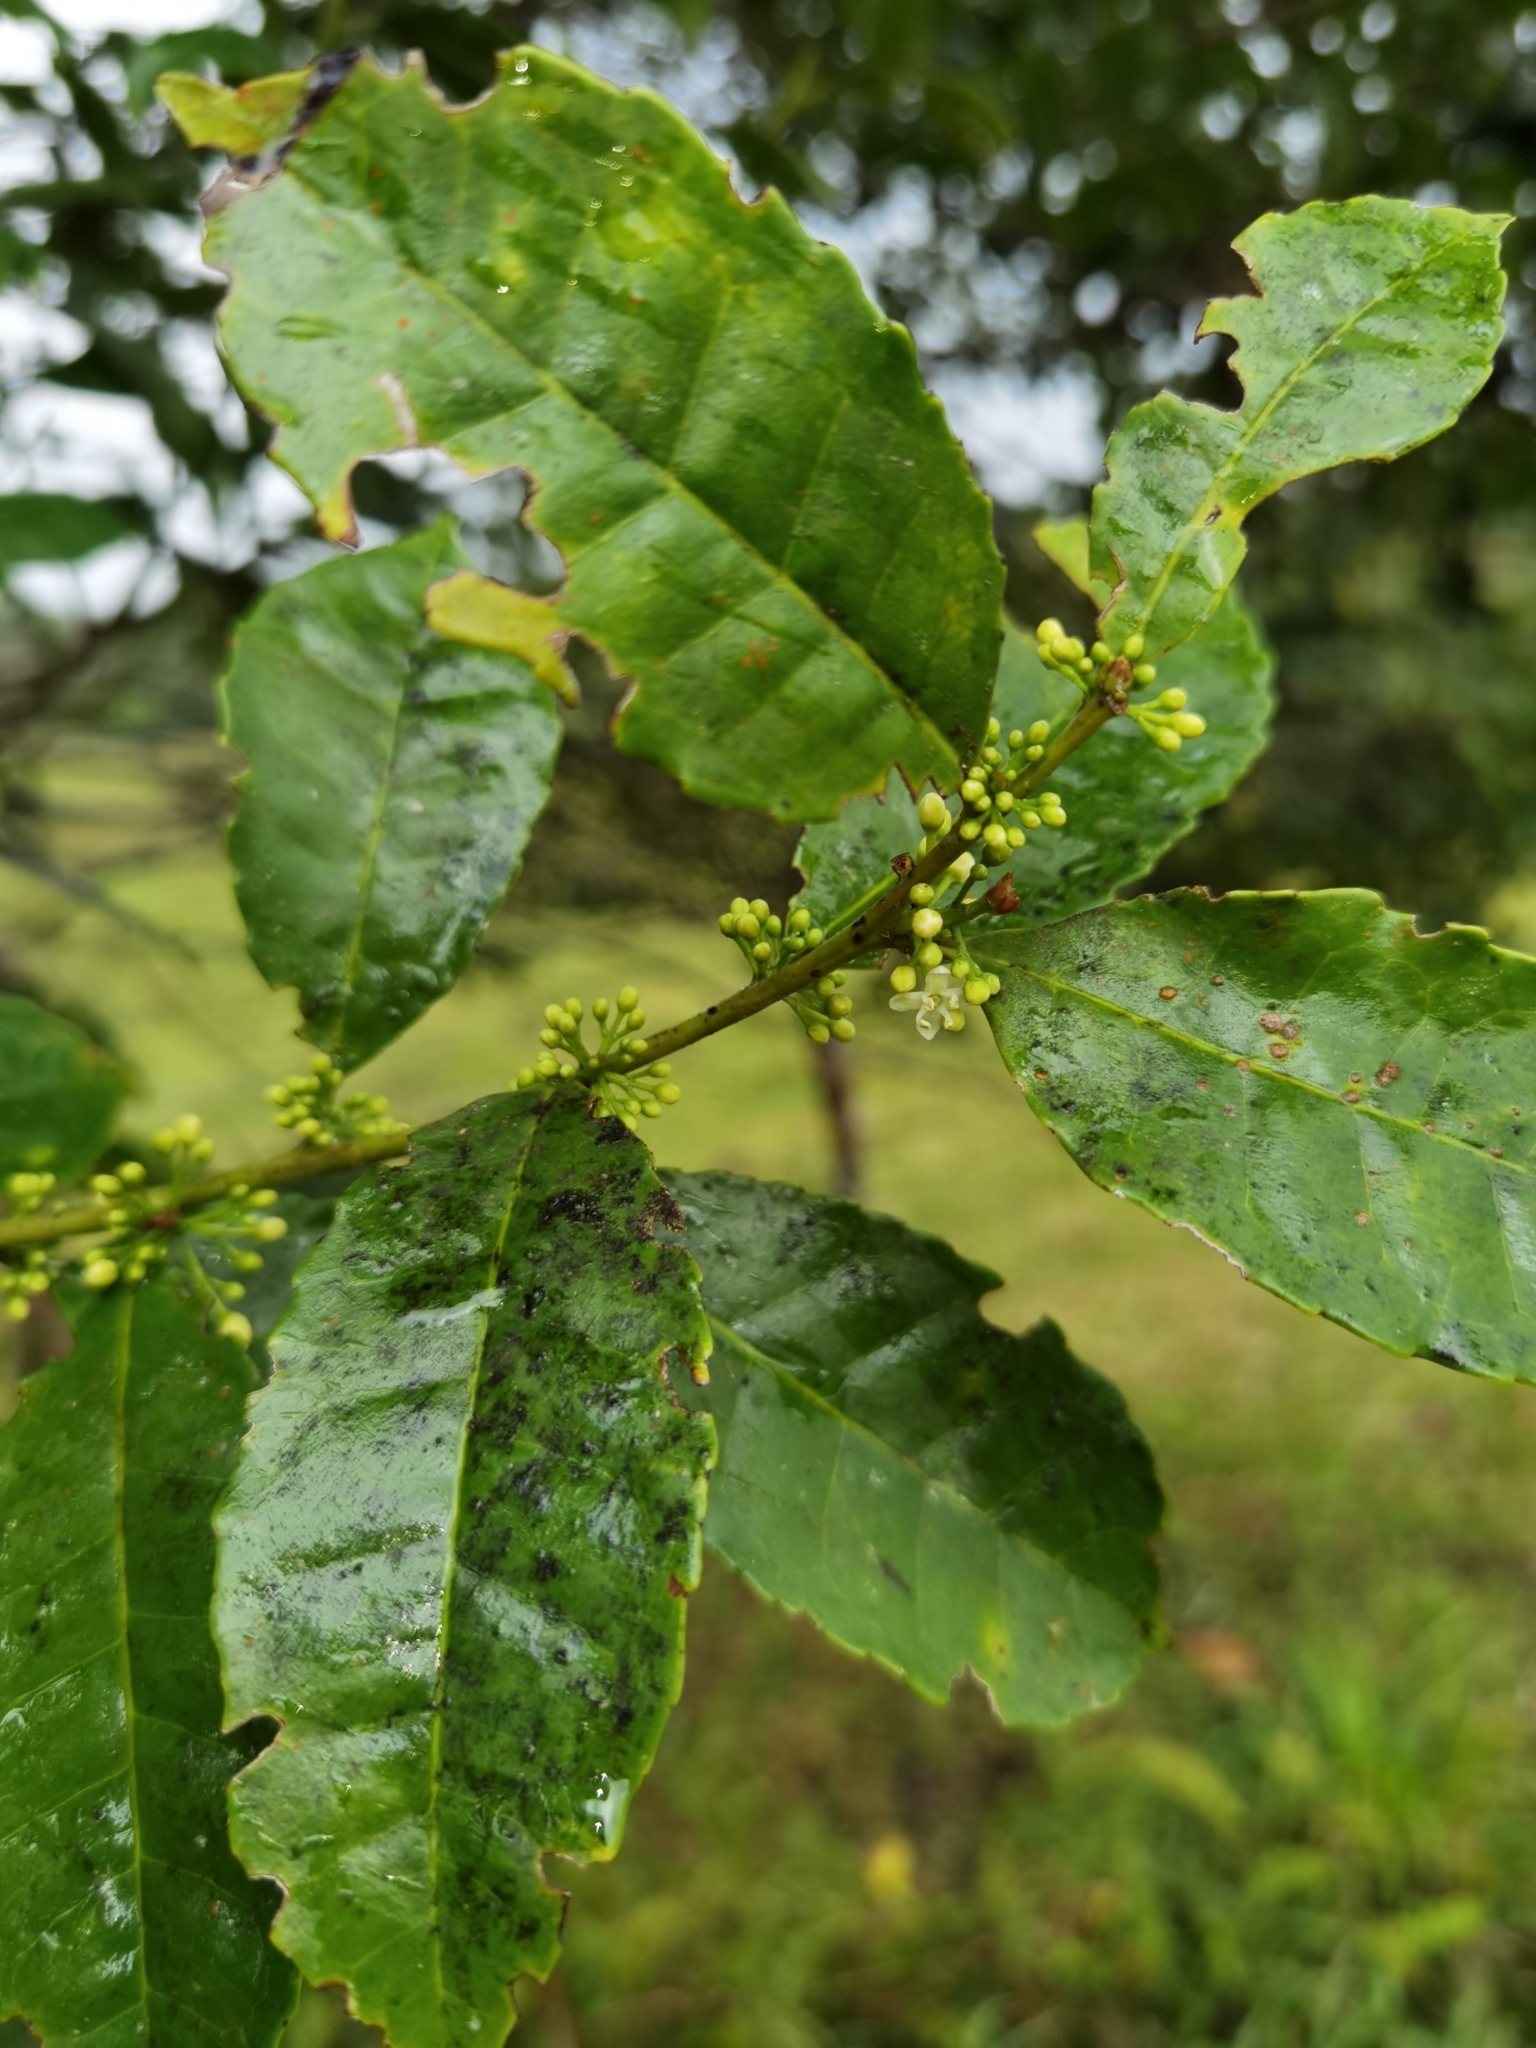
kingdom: Plantae
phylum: Tracheophyta
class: Magnoliopsida
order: Aquifoliales
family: Aquifoliaceae
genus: Ilex
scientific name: Ilex lamprophylla
